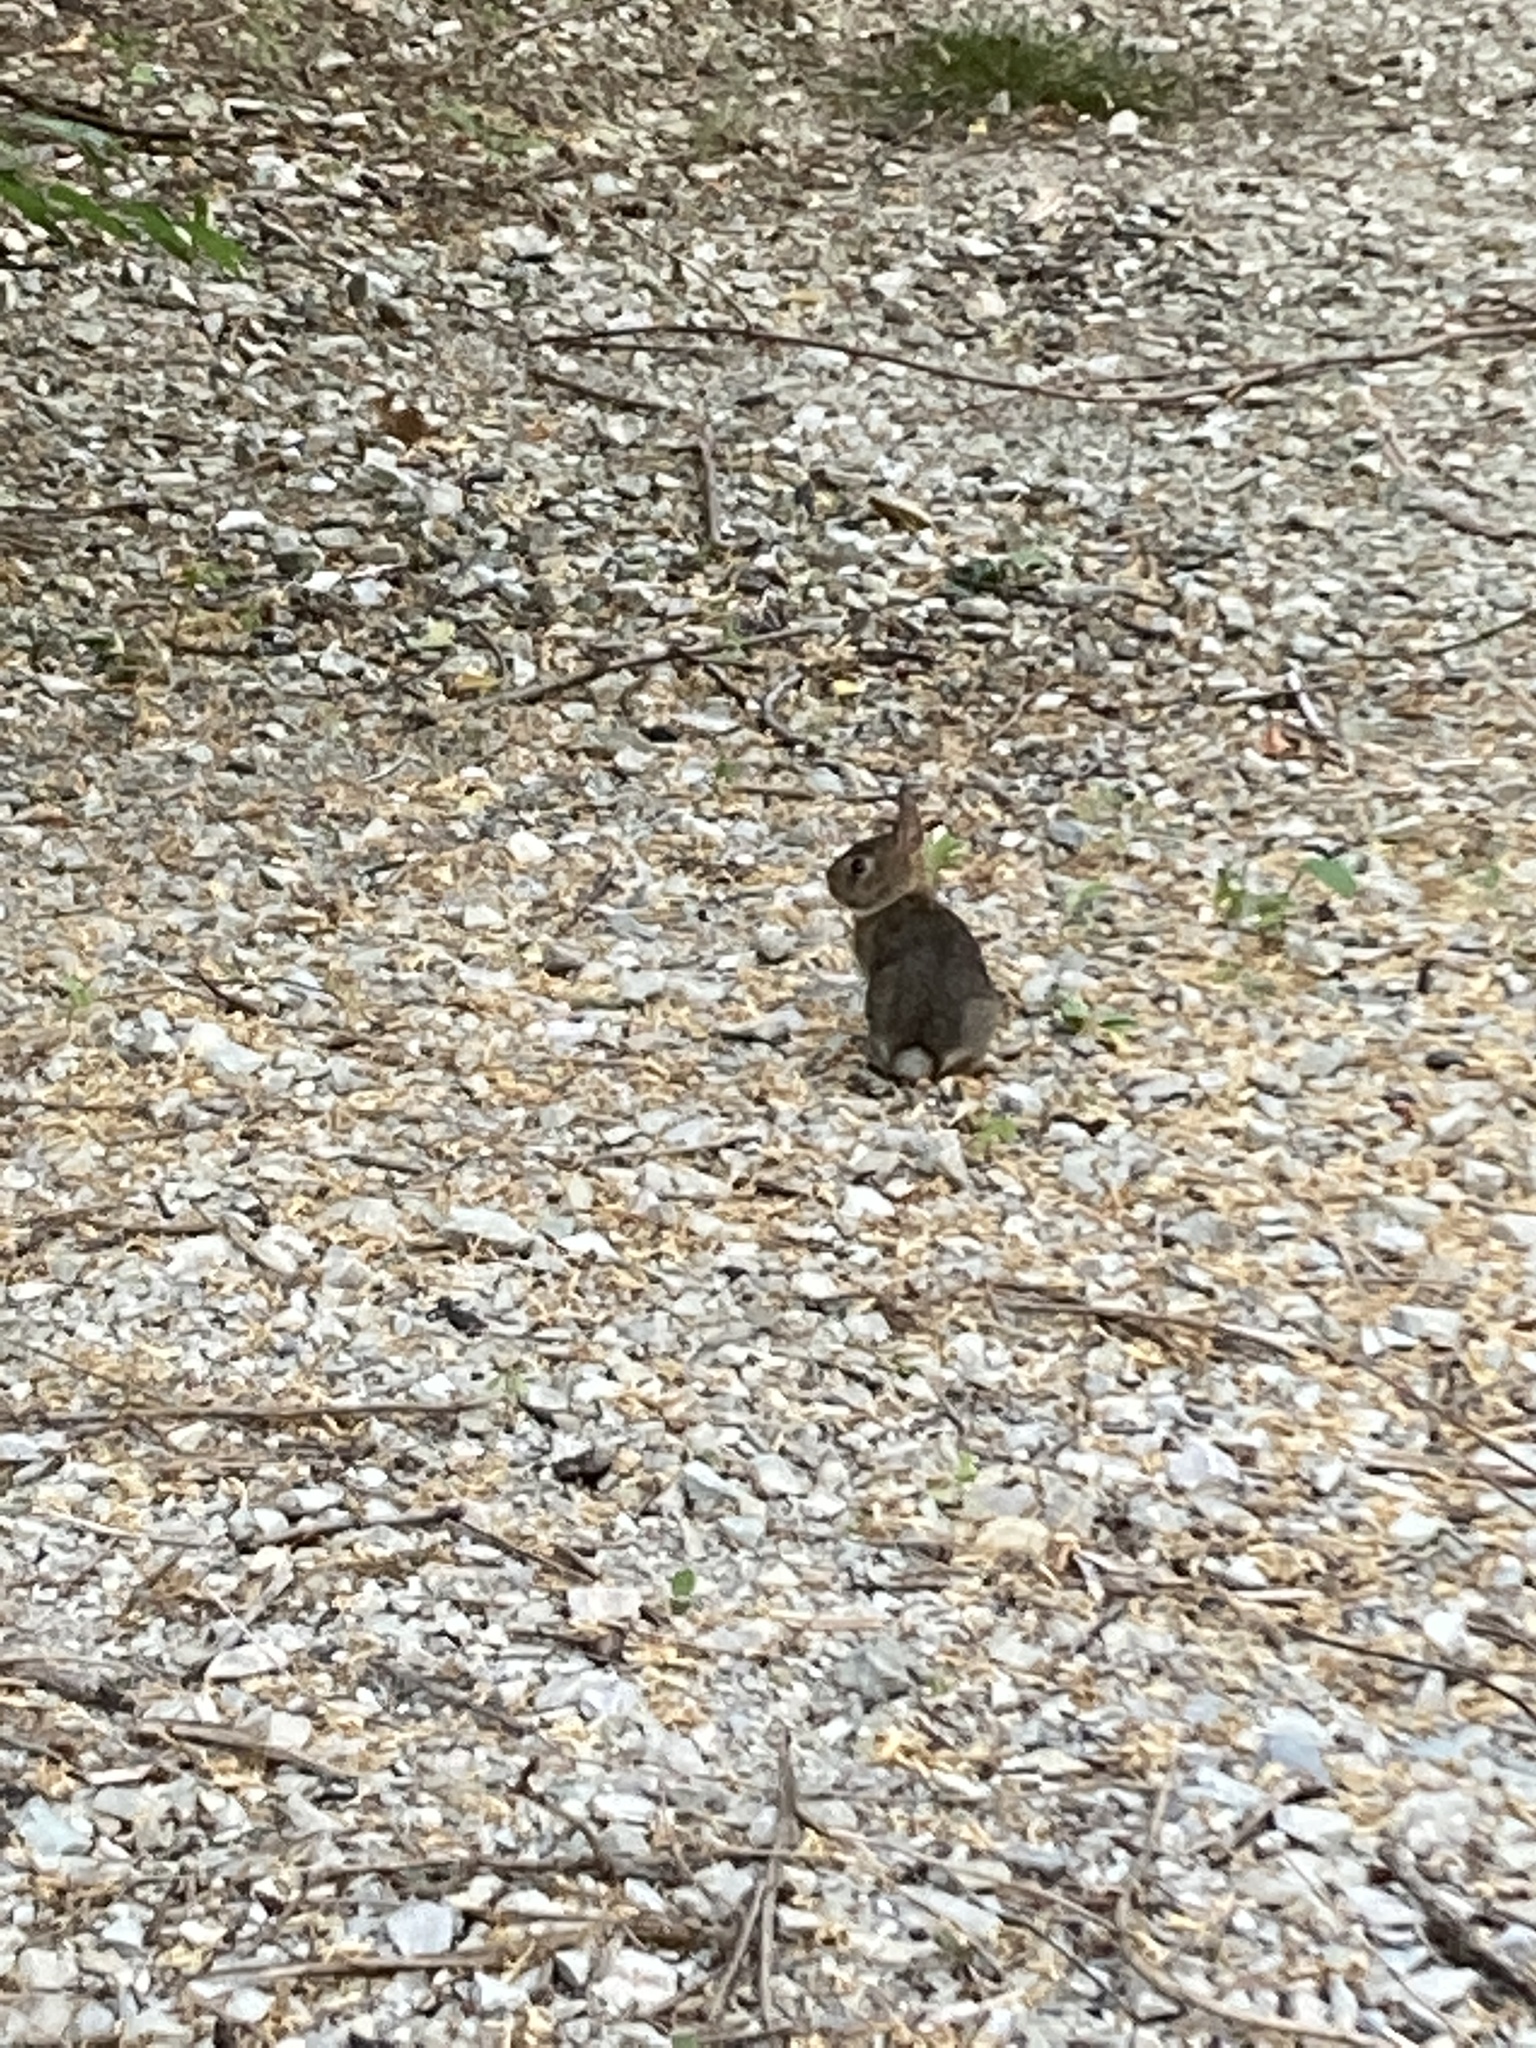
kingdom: Animalia
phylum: Chordata
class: Mammalia
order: Lagomorpha
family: Leporidae
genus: Sylvilagus
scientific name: Sylvilagus floridanus
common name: Eastern cottontail
